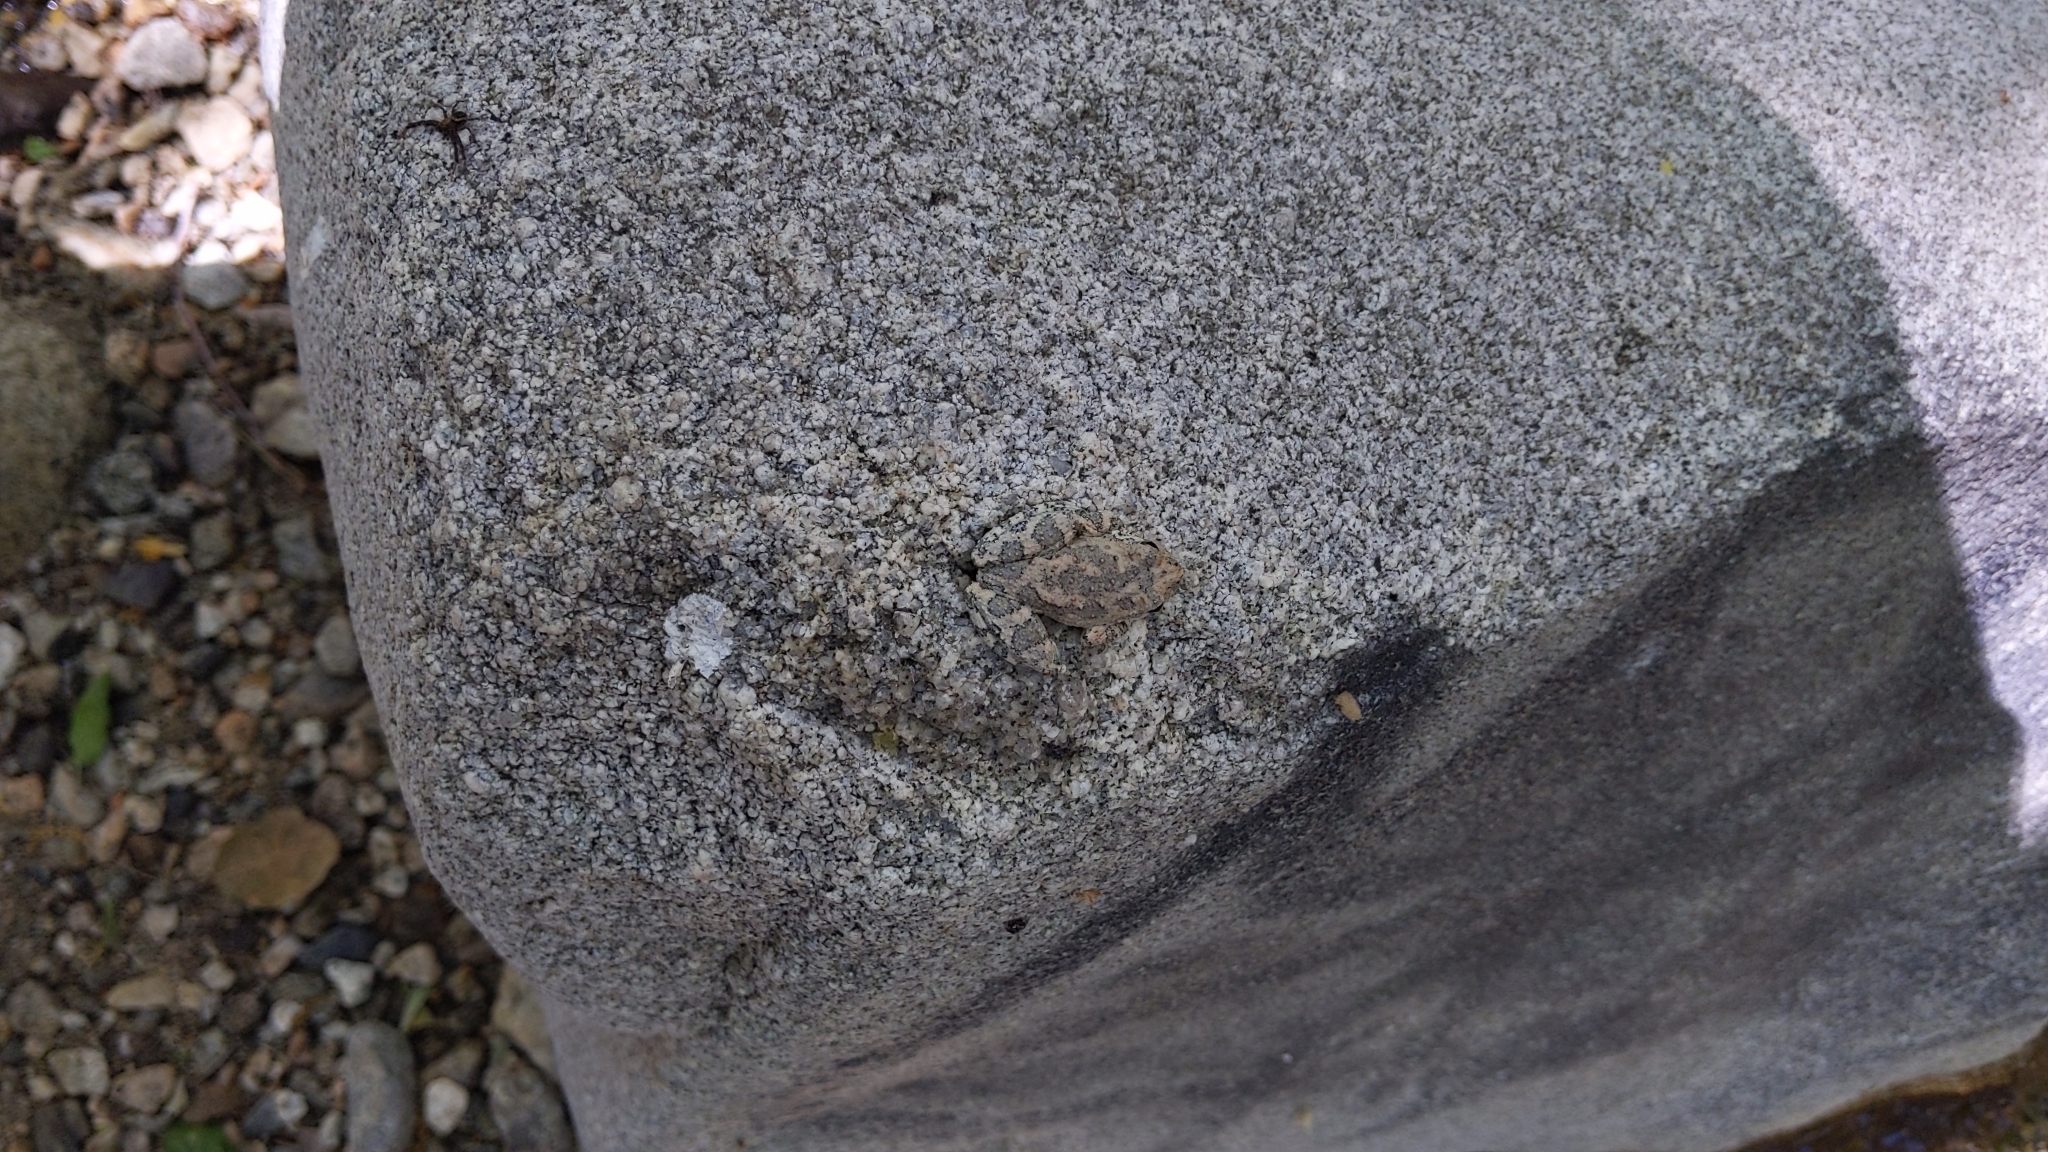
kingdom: Animalia
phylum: Chordata
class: Amphibia
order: Anura
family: Hylidae
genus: Pseudacris
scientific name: Pseudacris cadaverina
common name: California chorus frog
